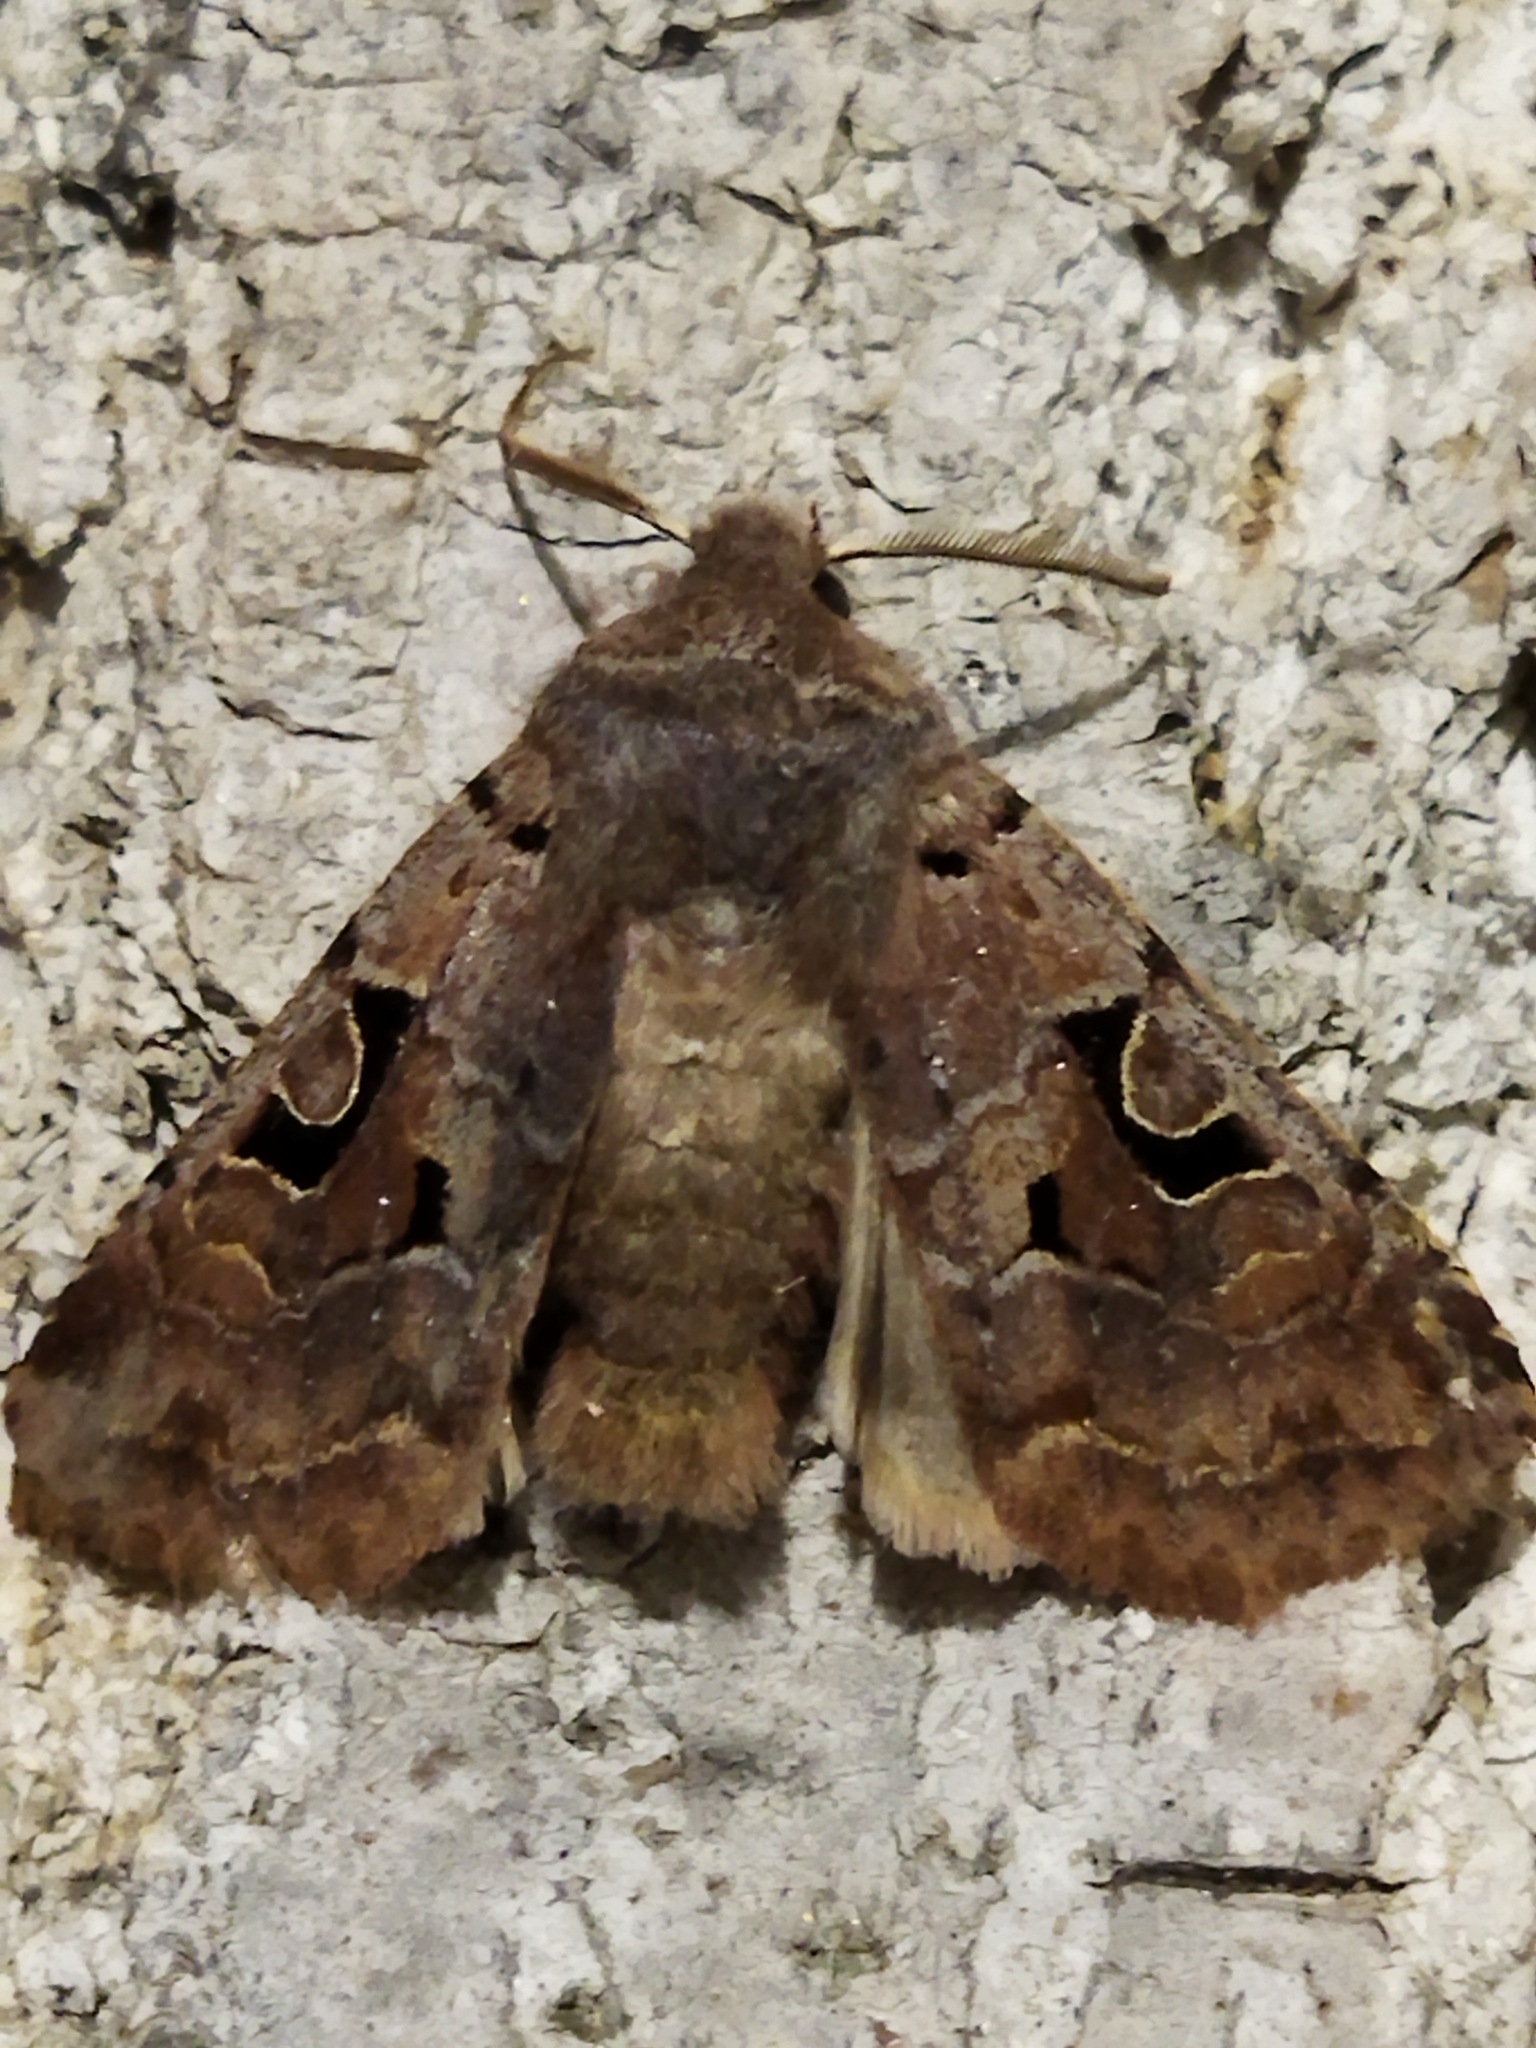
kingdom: Animalia
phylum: Arthropoda
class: Insecta
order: Lepidoptera
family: Noctuidae
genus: Orthosia
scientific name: Orthosia gothica
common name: Hebrew character
